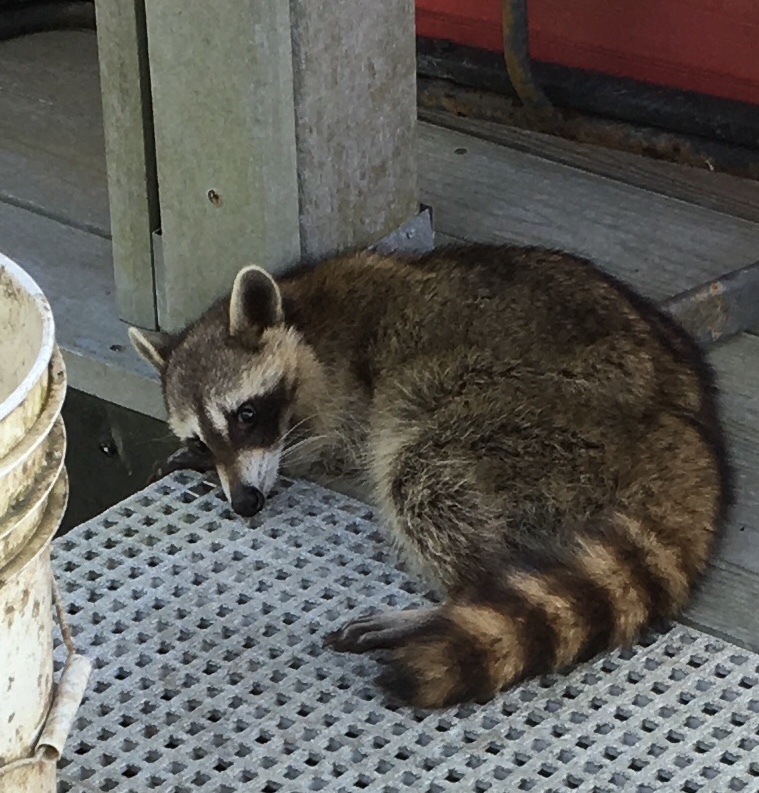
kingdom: Animalia
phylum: Chordata
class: Mammalia
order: Carnivora
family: Procyonidae
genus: Procyon
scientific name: Procyon lotor
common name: Raccoon
